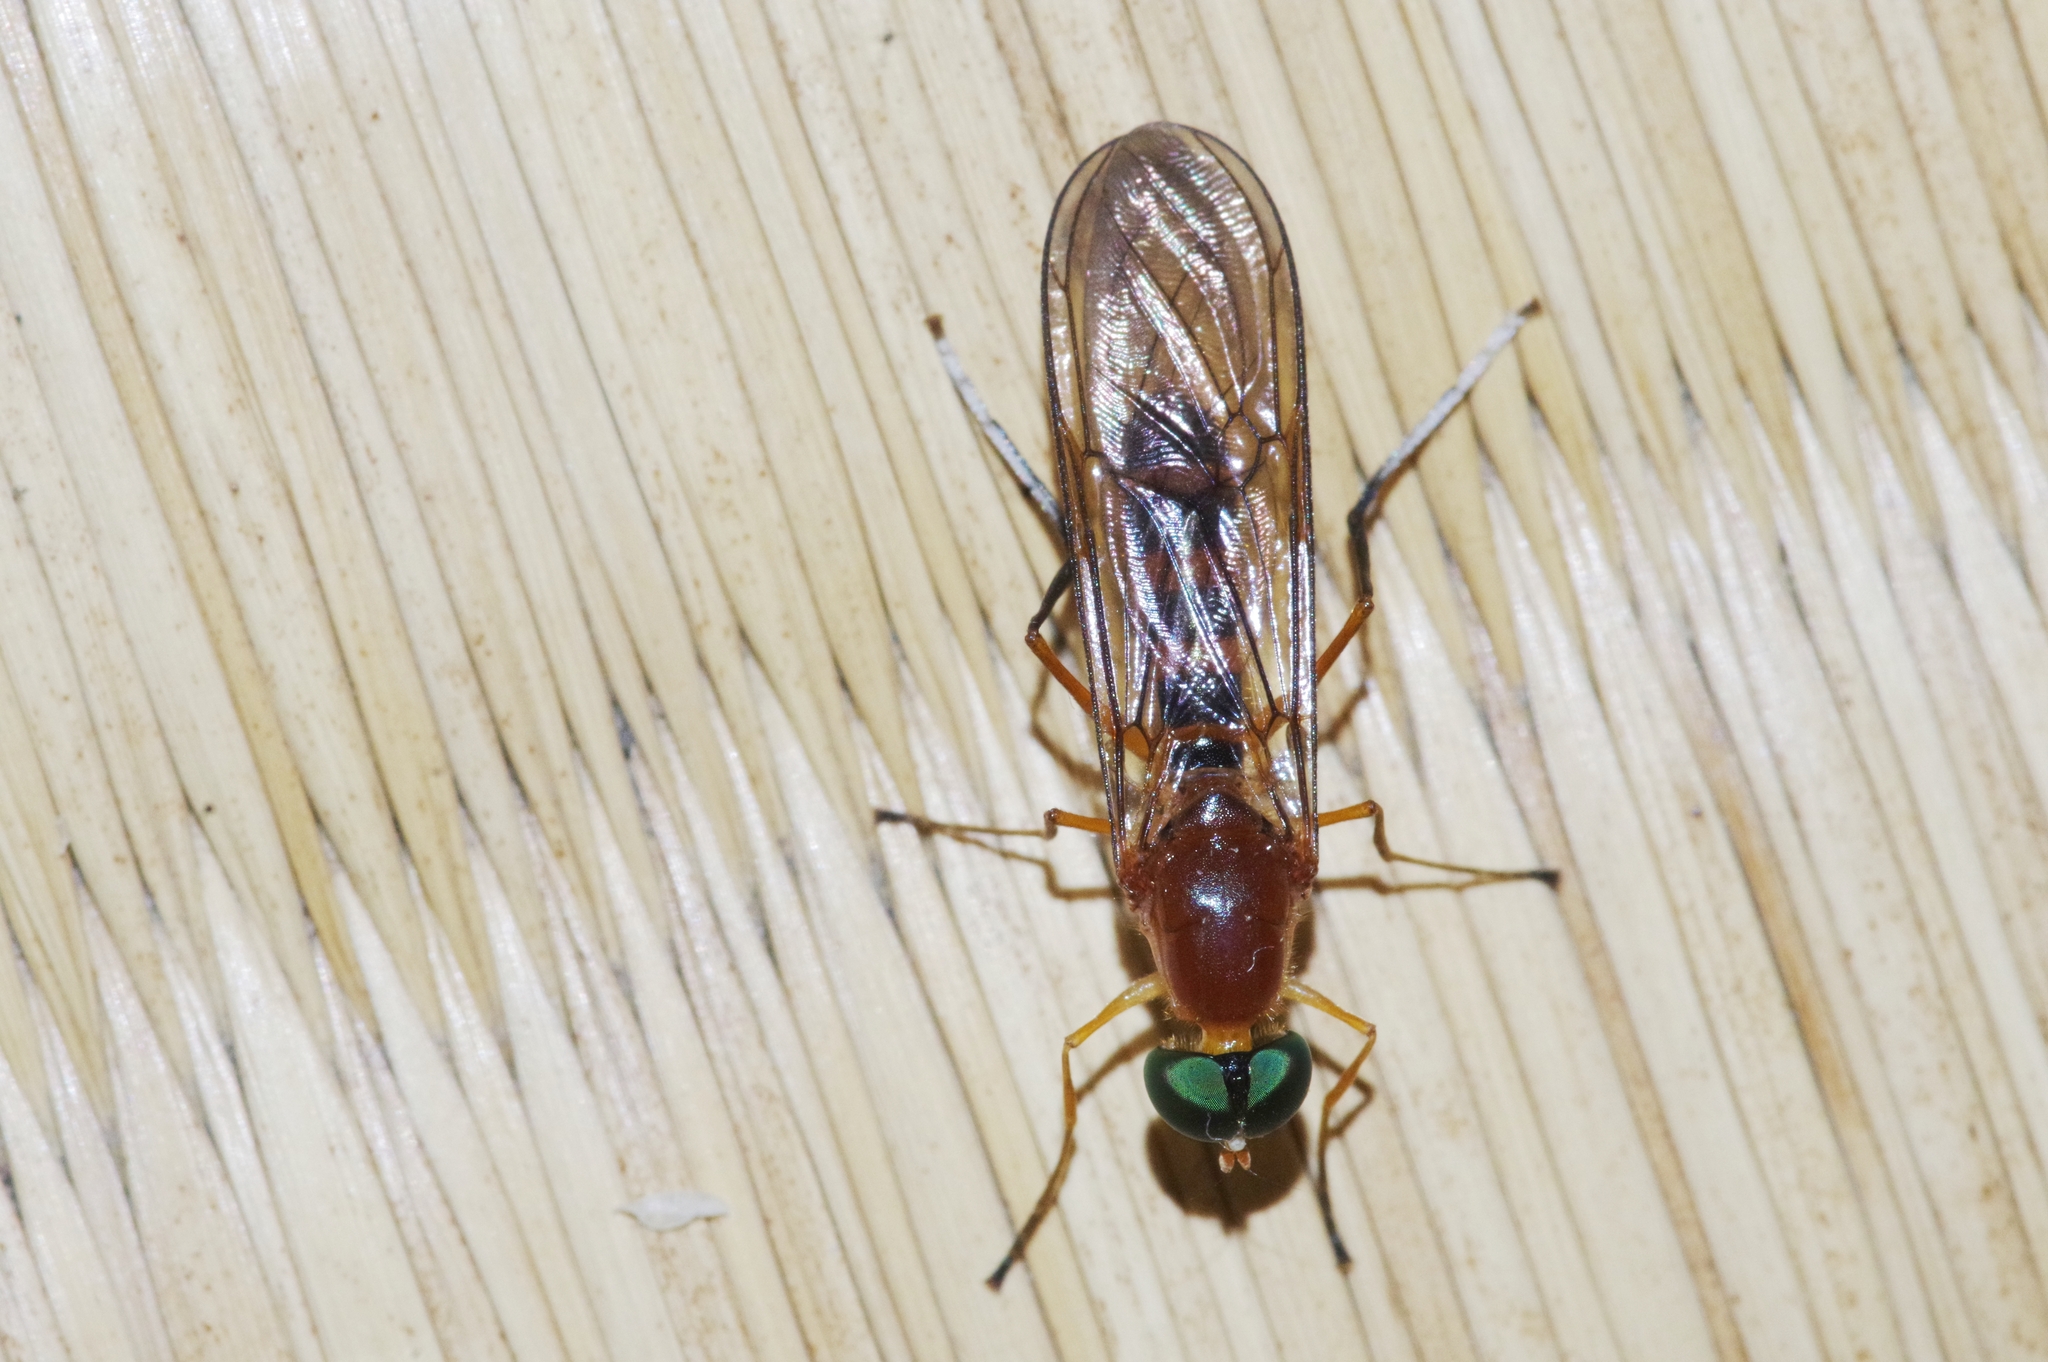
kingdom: Animalia
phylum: Arthropoda
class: Insecta
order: Diptera
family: Stratiomyidae
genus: Ptecticus
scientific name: Ptecticus australis
